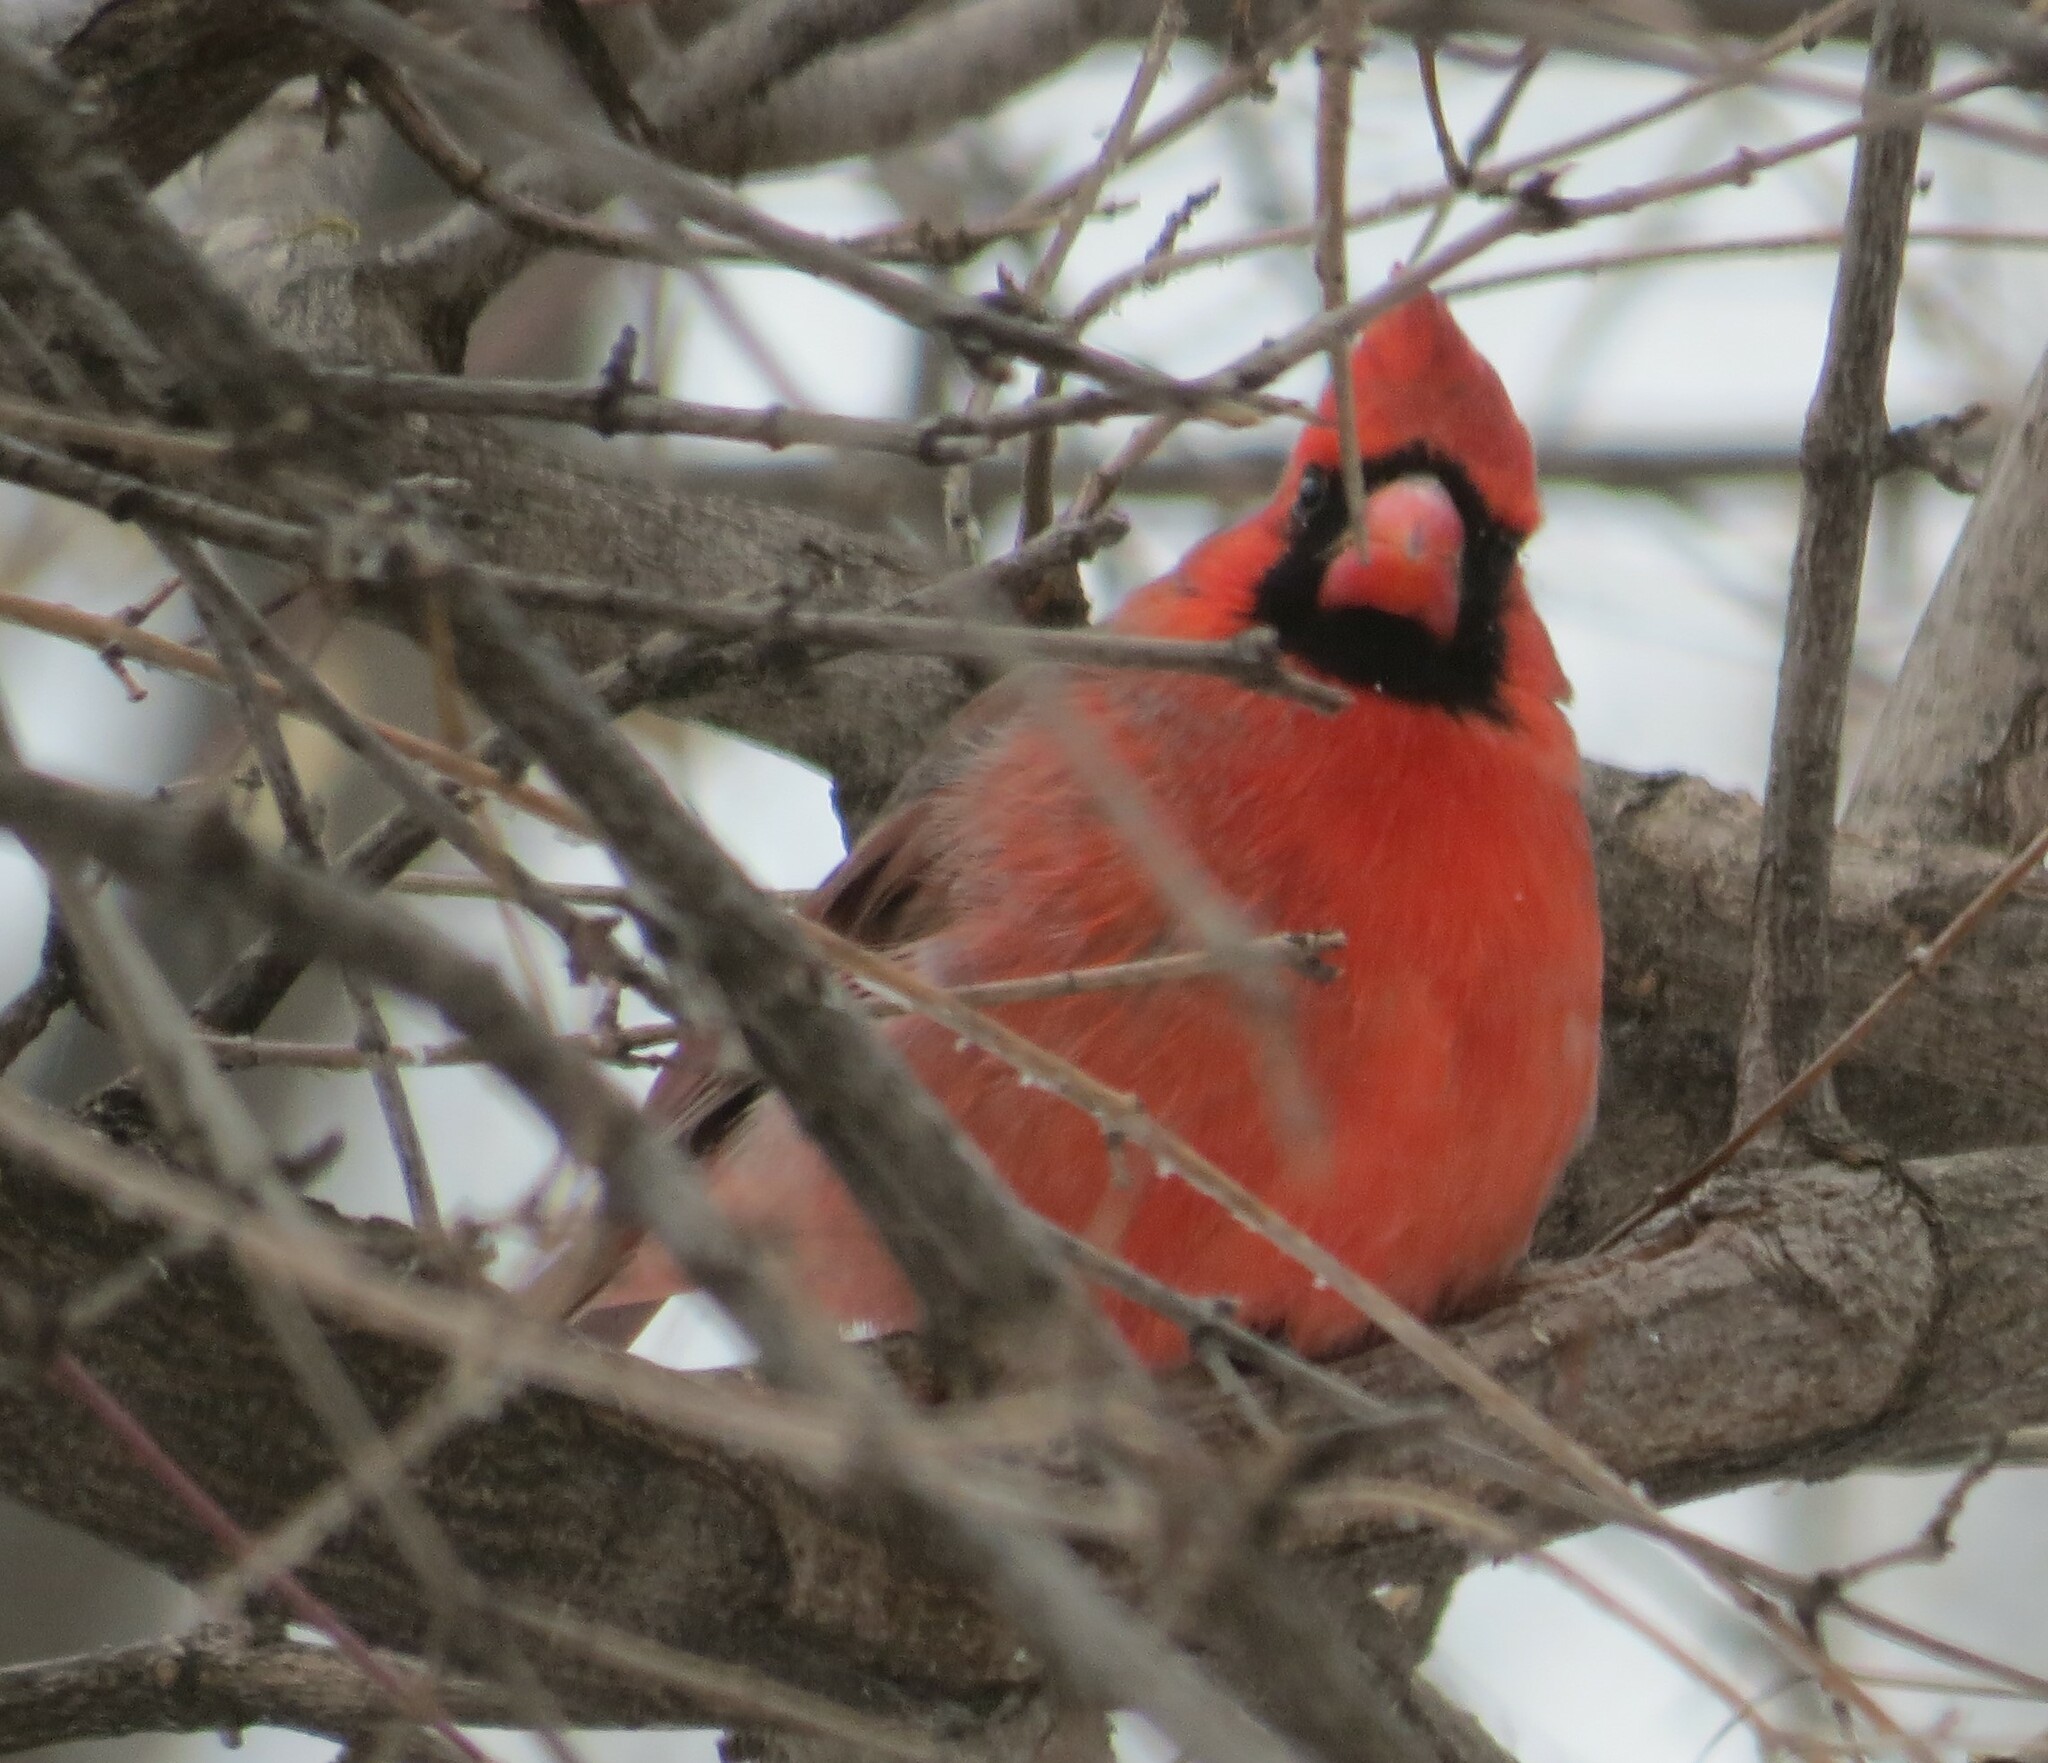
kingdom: Animalia
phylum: Chordata
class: Aves
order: Passeriformes
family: Cardinalidae
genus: Cardinalis
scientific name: Cardinalis cardinalis
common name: Northern cardinal
